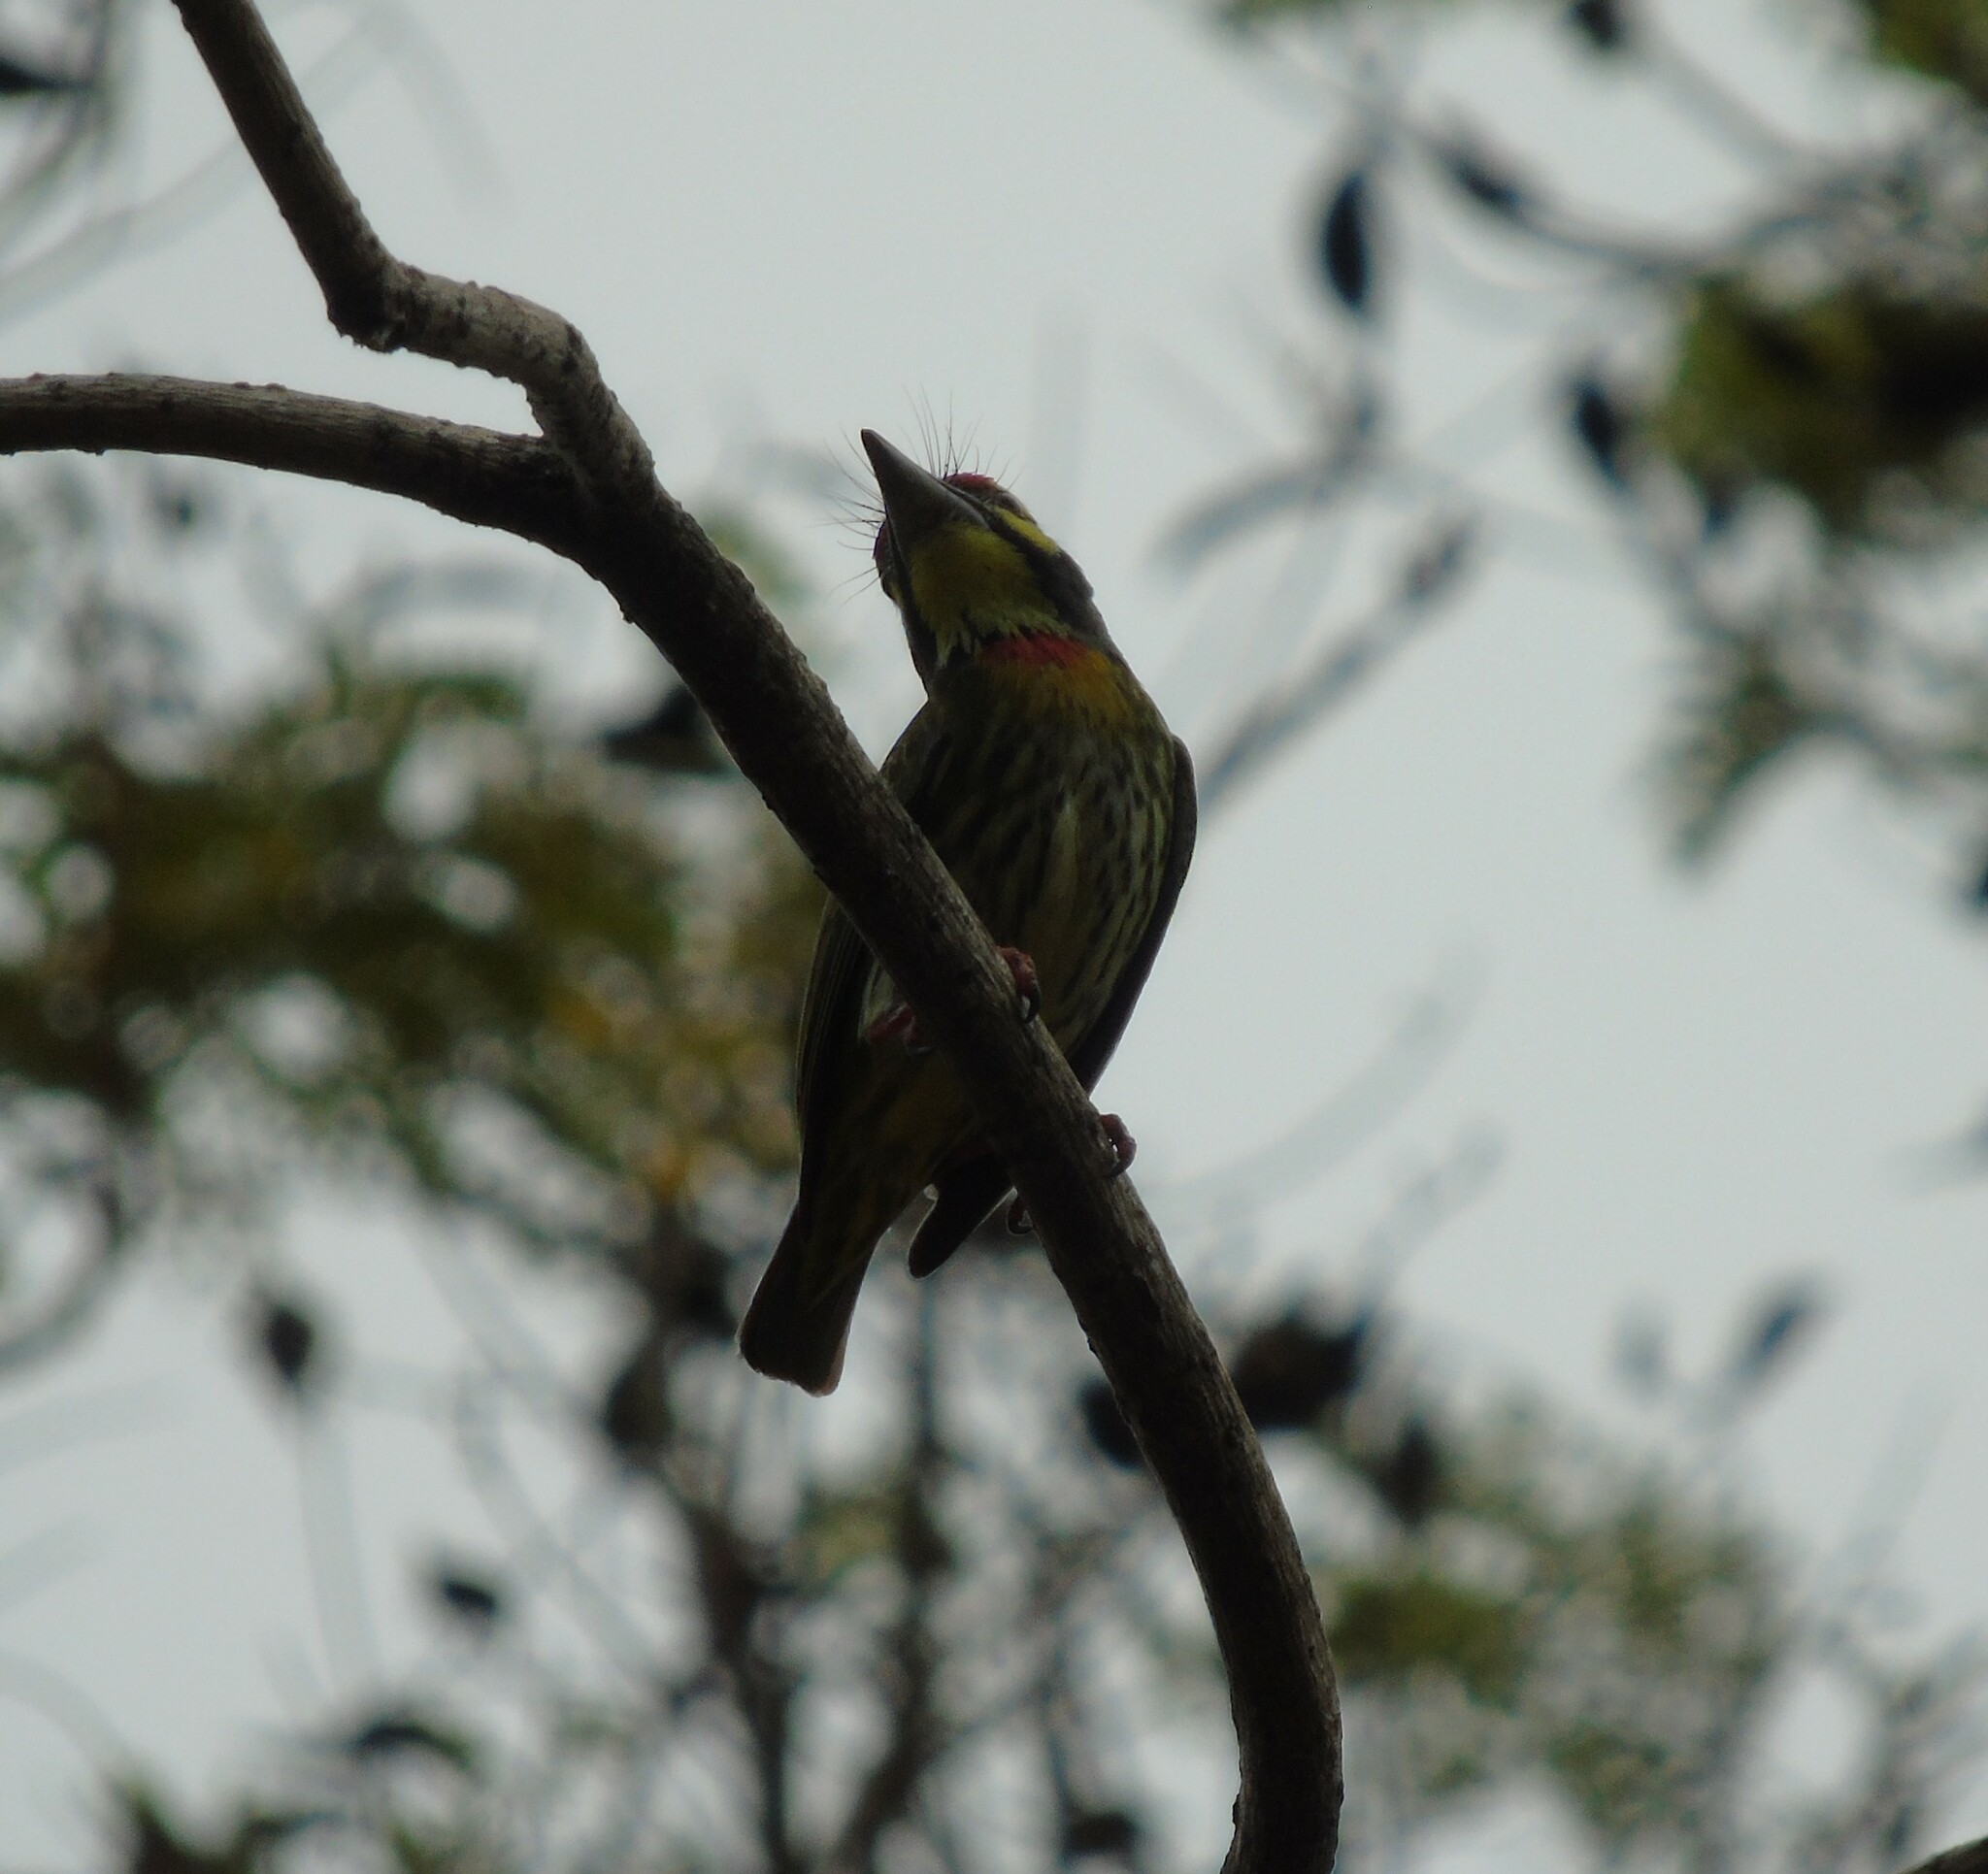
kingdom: Animalia
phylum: Chordata
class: Aves
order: Piciformes
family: Megalaimidae
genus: Psilopogon
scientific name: Psilopogon haemacephalus
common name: Coppersmith barbet
